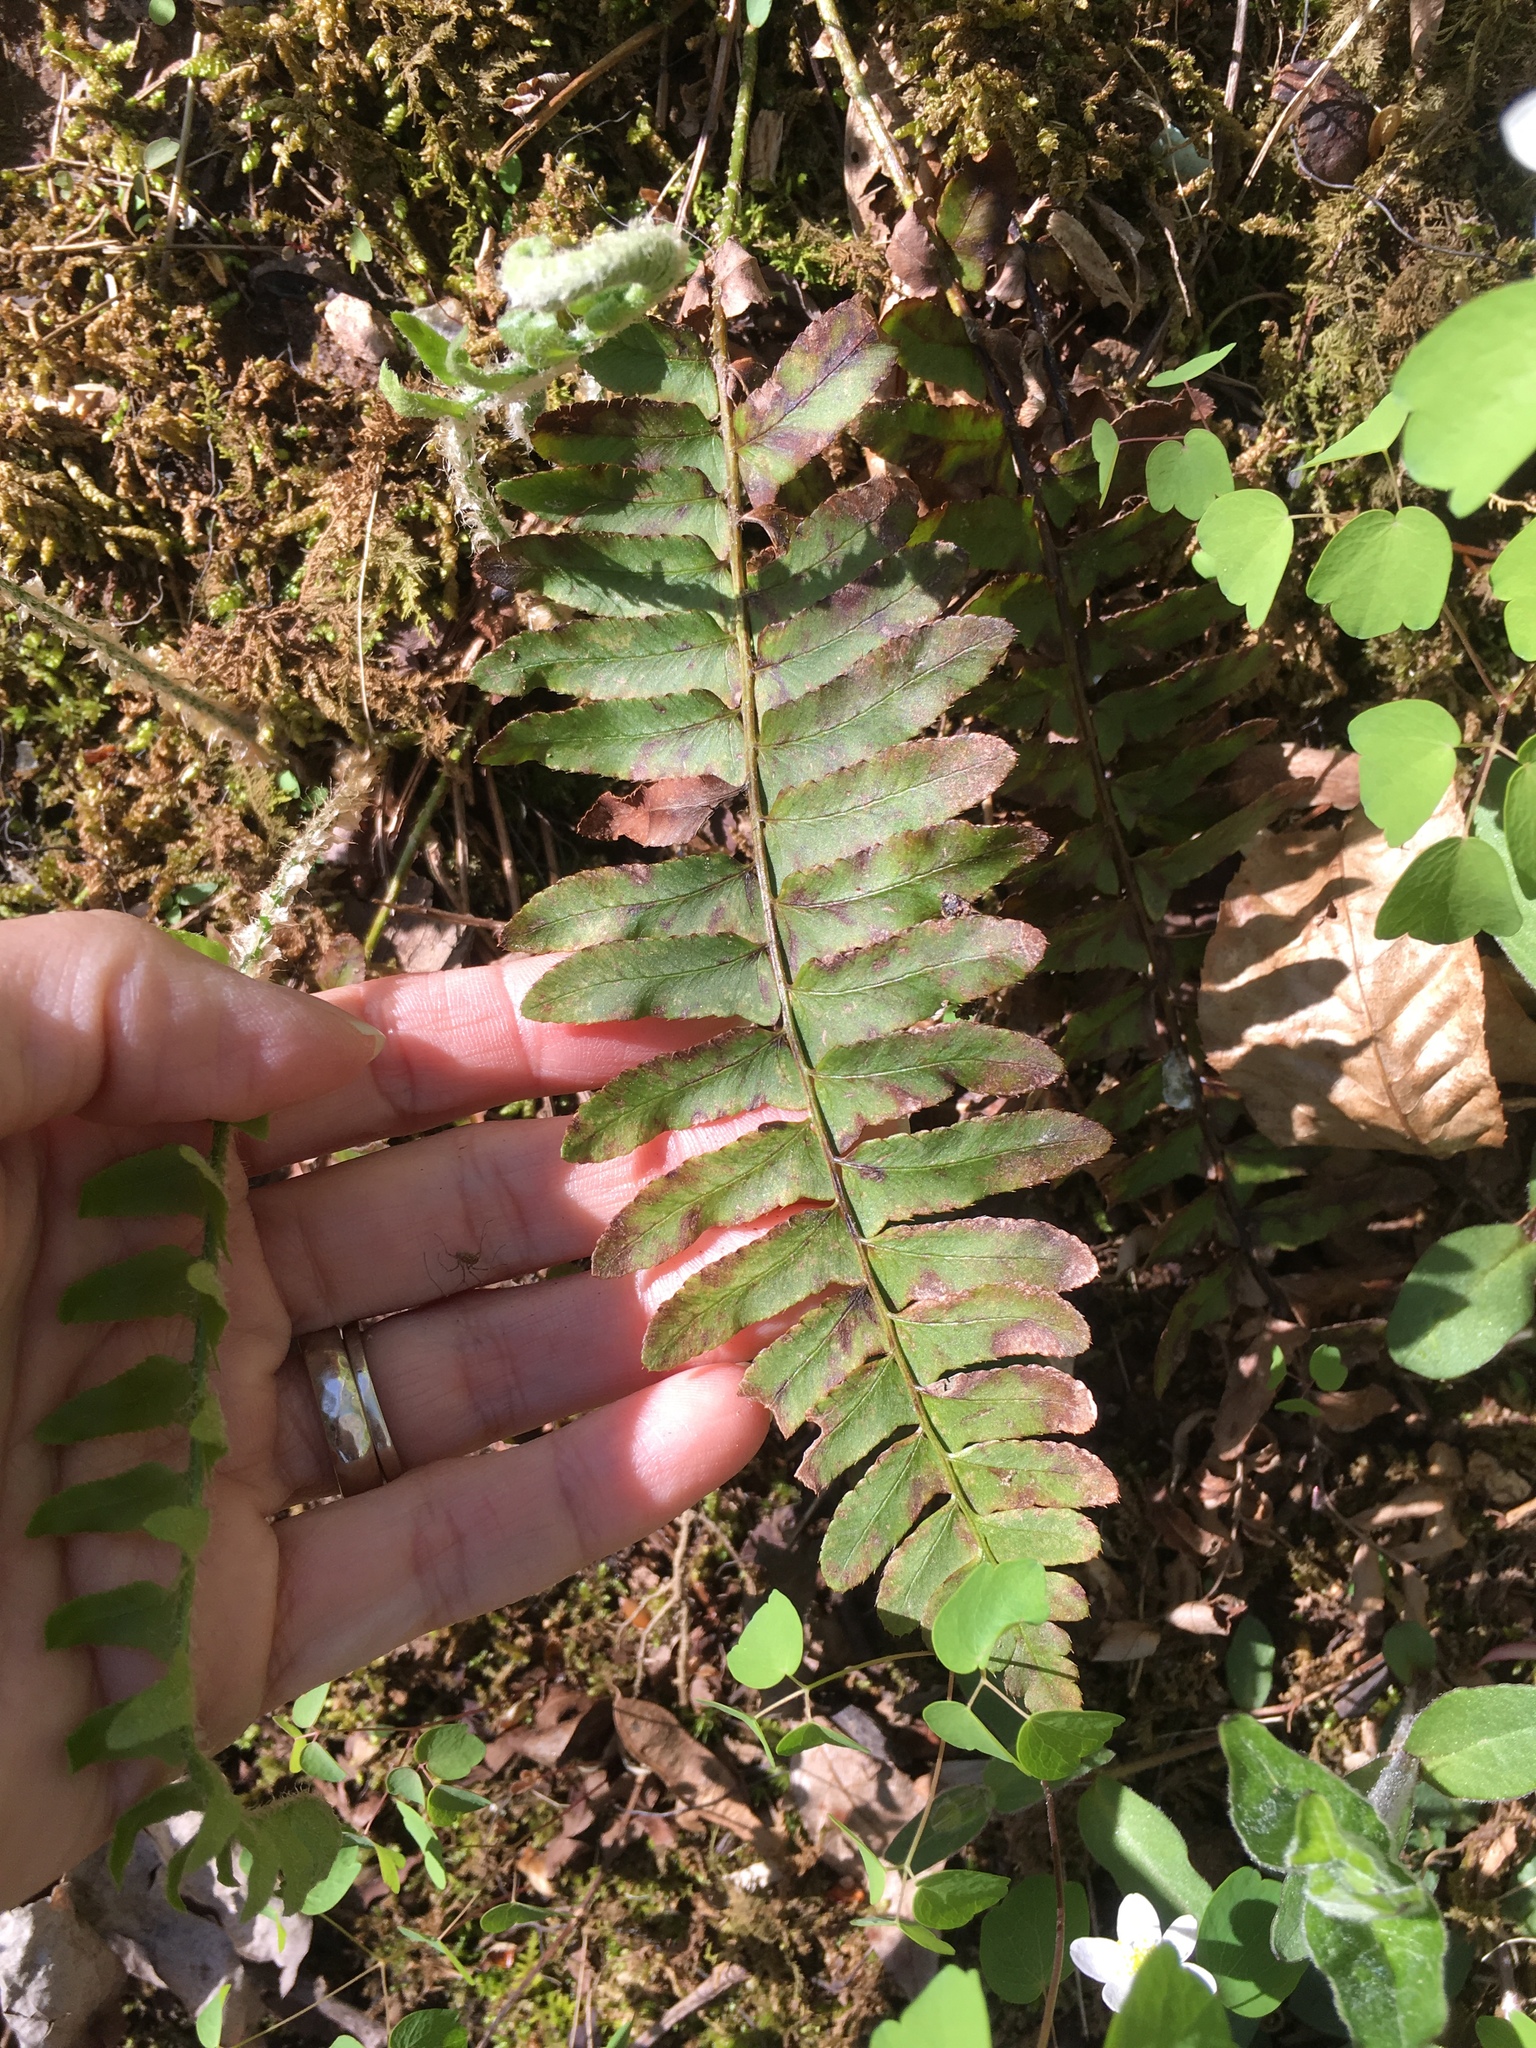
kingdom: Plantae
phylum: Tracheophyta
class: Polypodiopsida
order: Polypodiales
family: Dryopteridaceae
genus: Polystichum
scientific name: Polystichum acrostichoides
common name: Christmas fern
